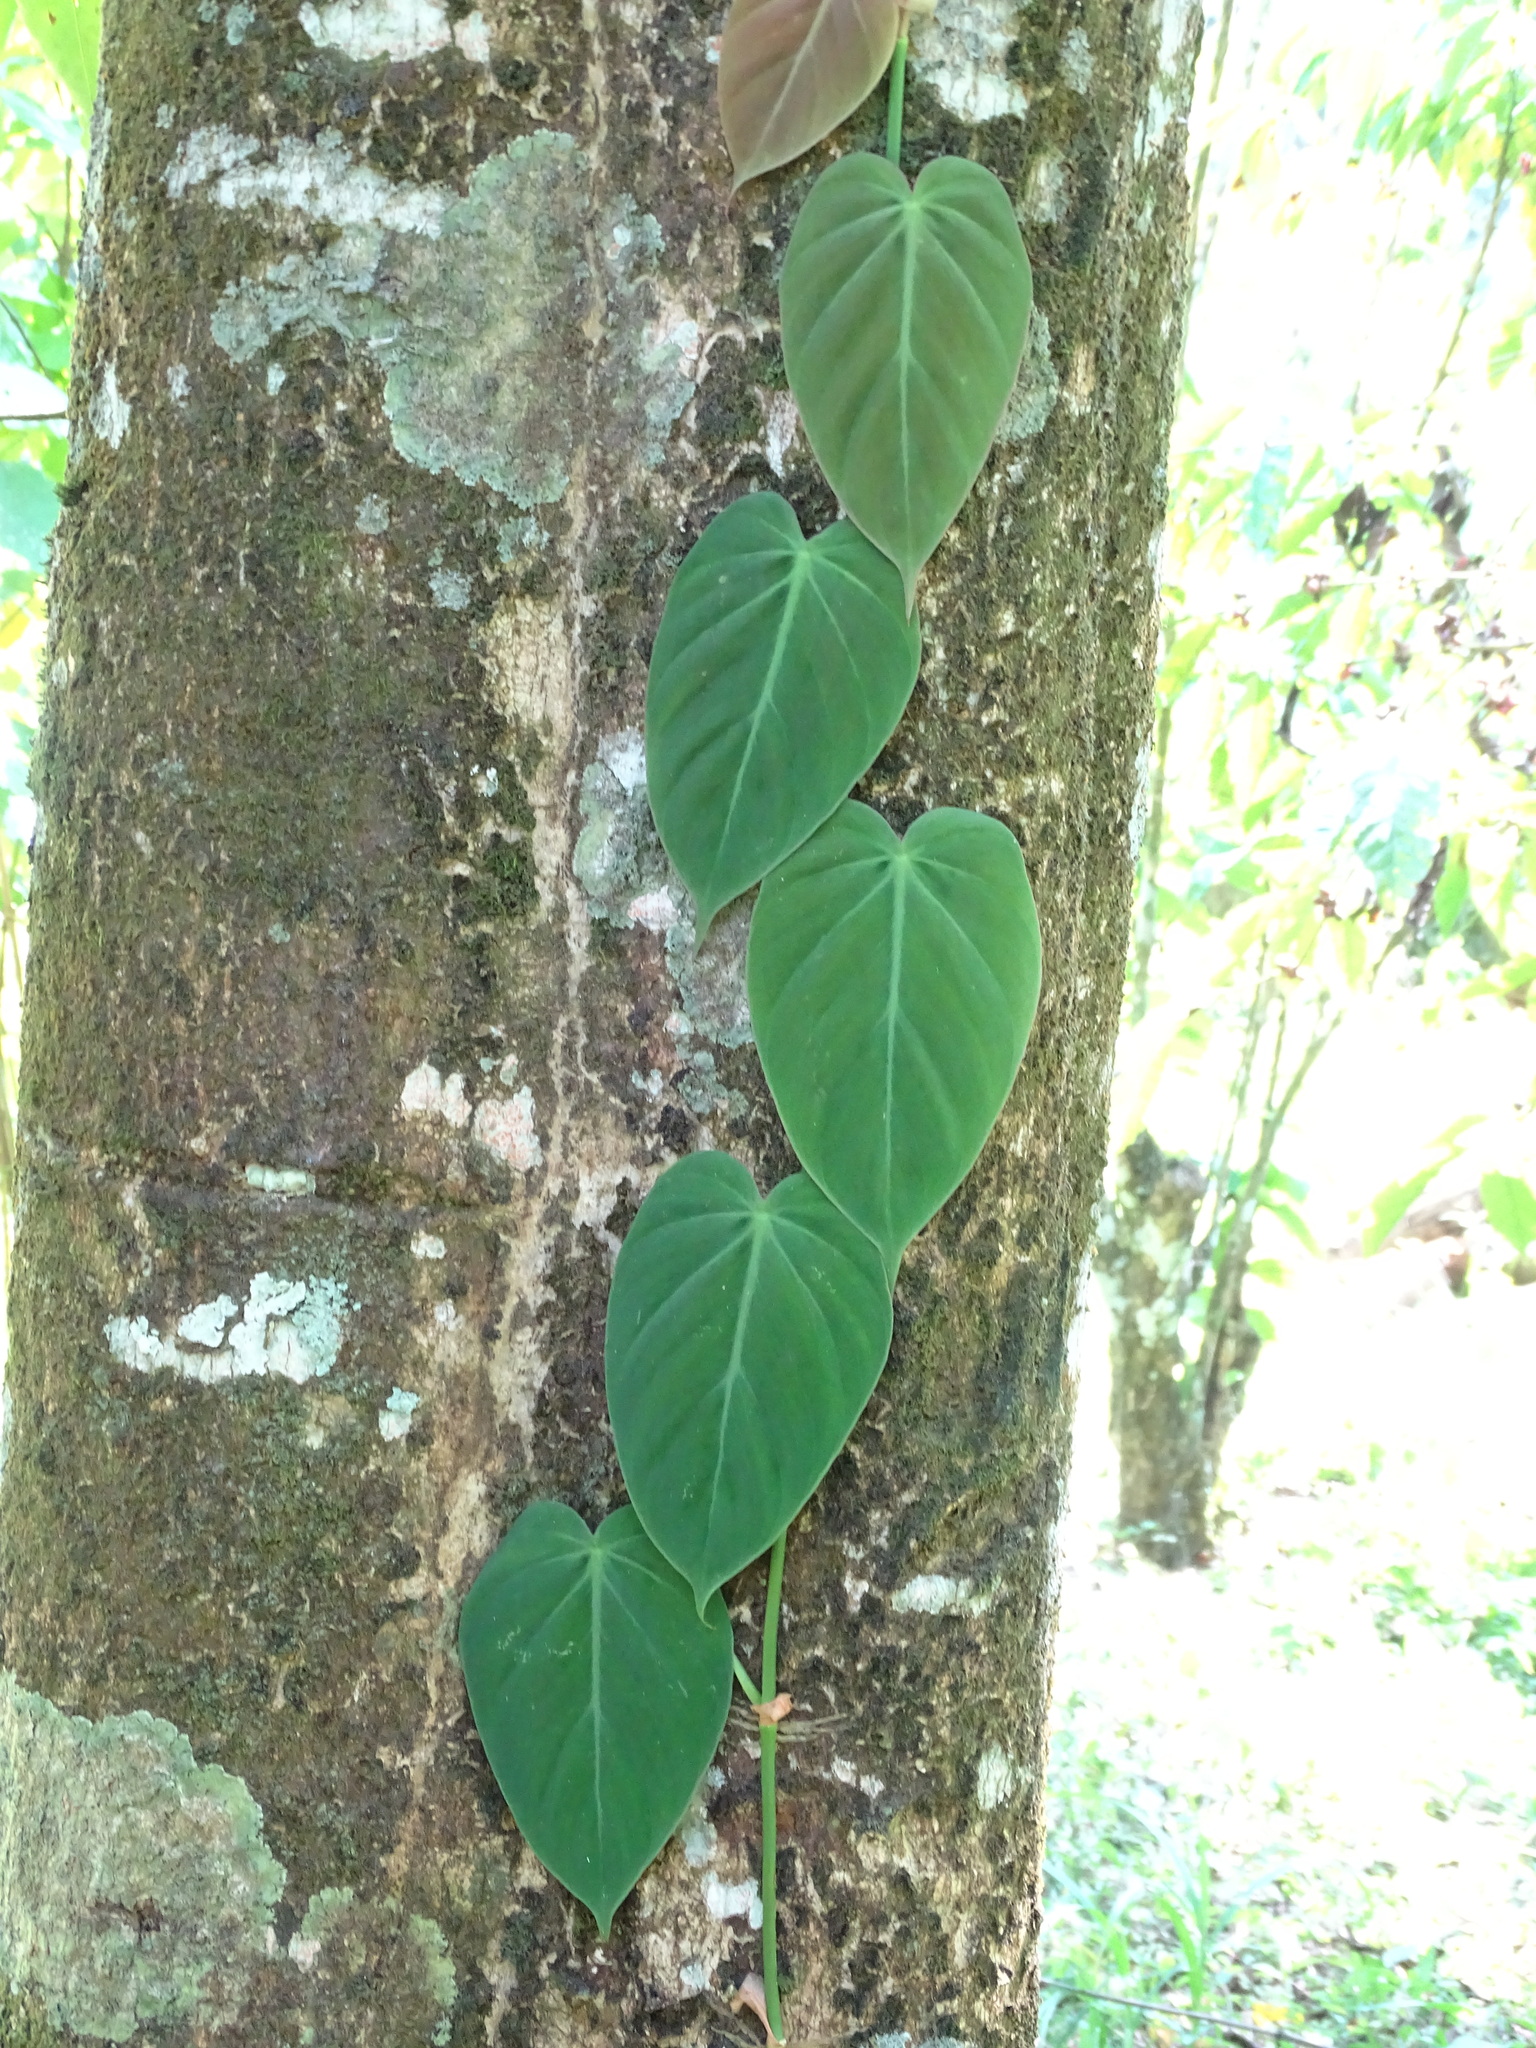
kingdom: Plantae
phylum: Tracheophyta
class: Liliopsida
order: Alismatales
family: Araceae
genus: Philodendron
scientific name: Philodendron hederaceum
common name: Vilevine
